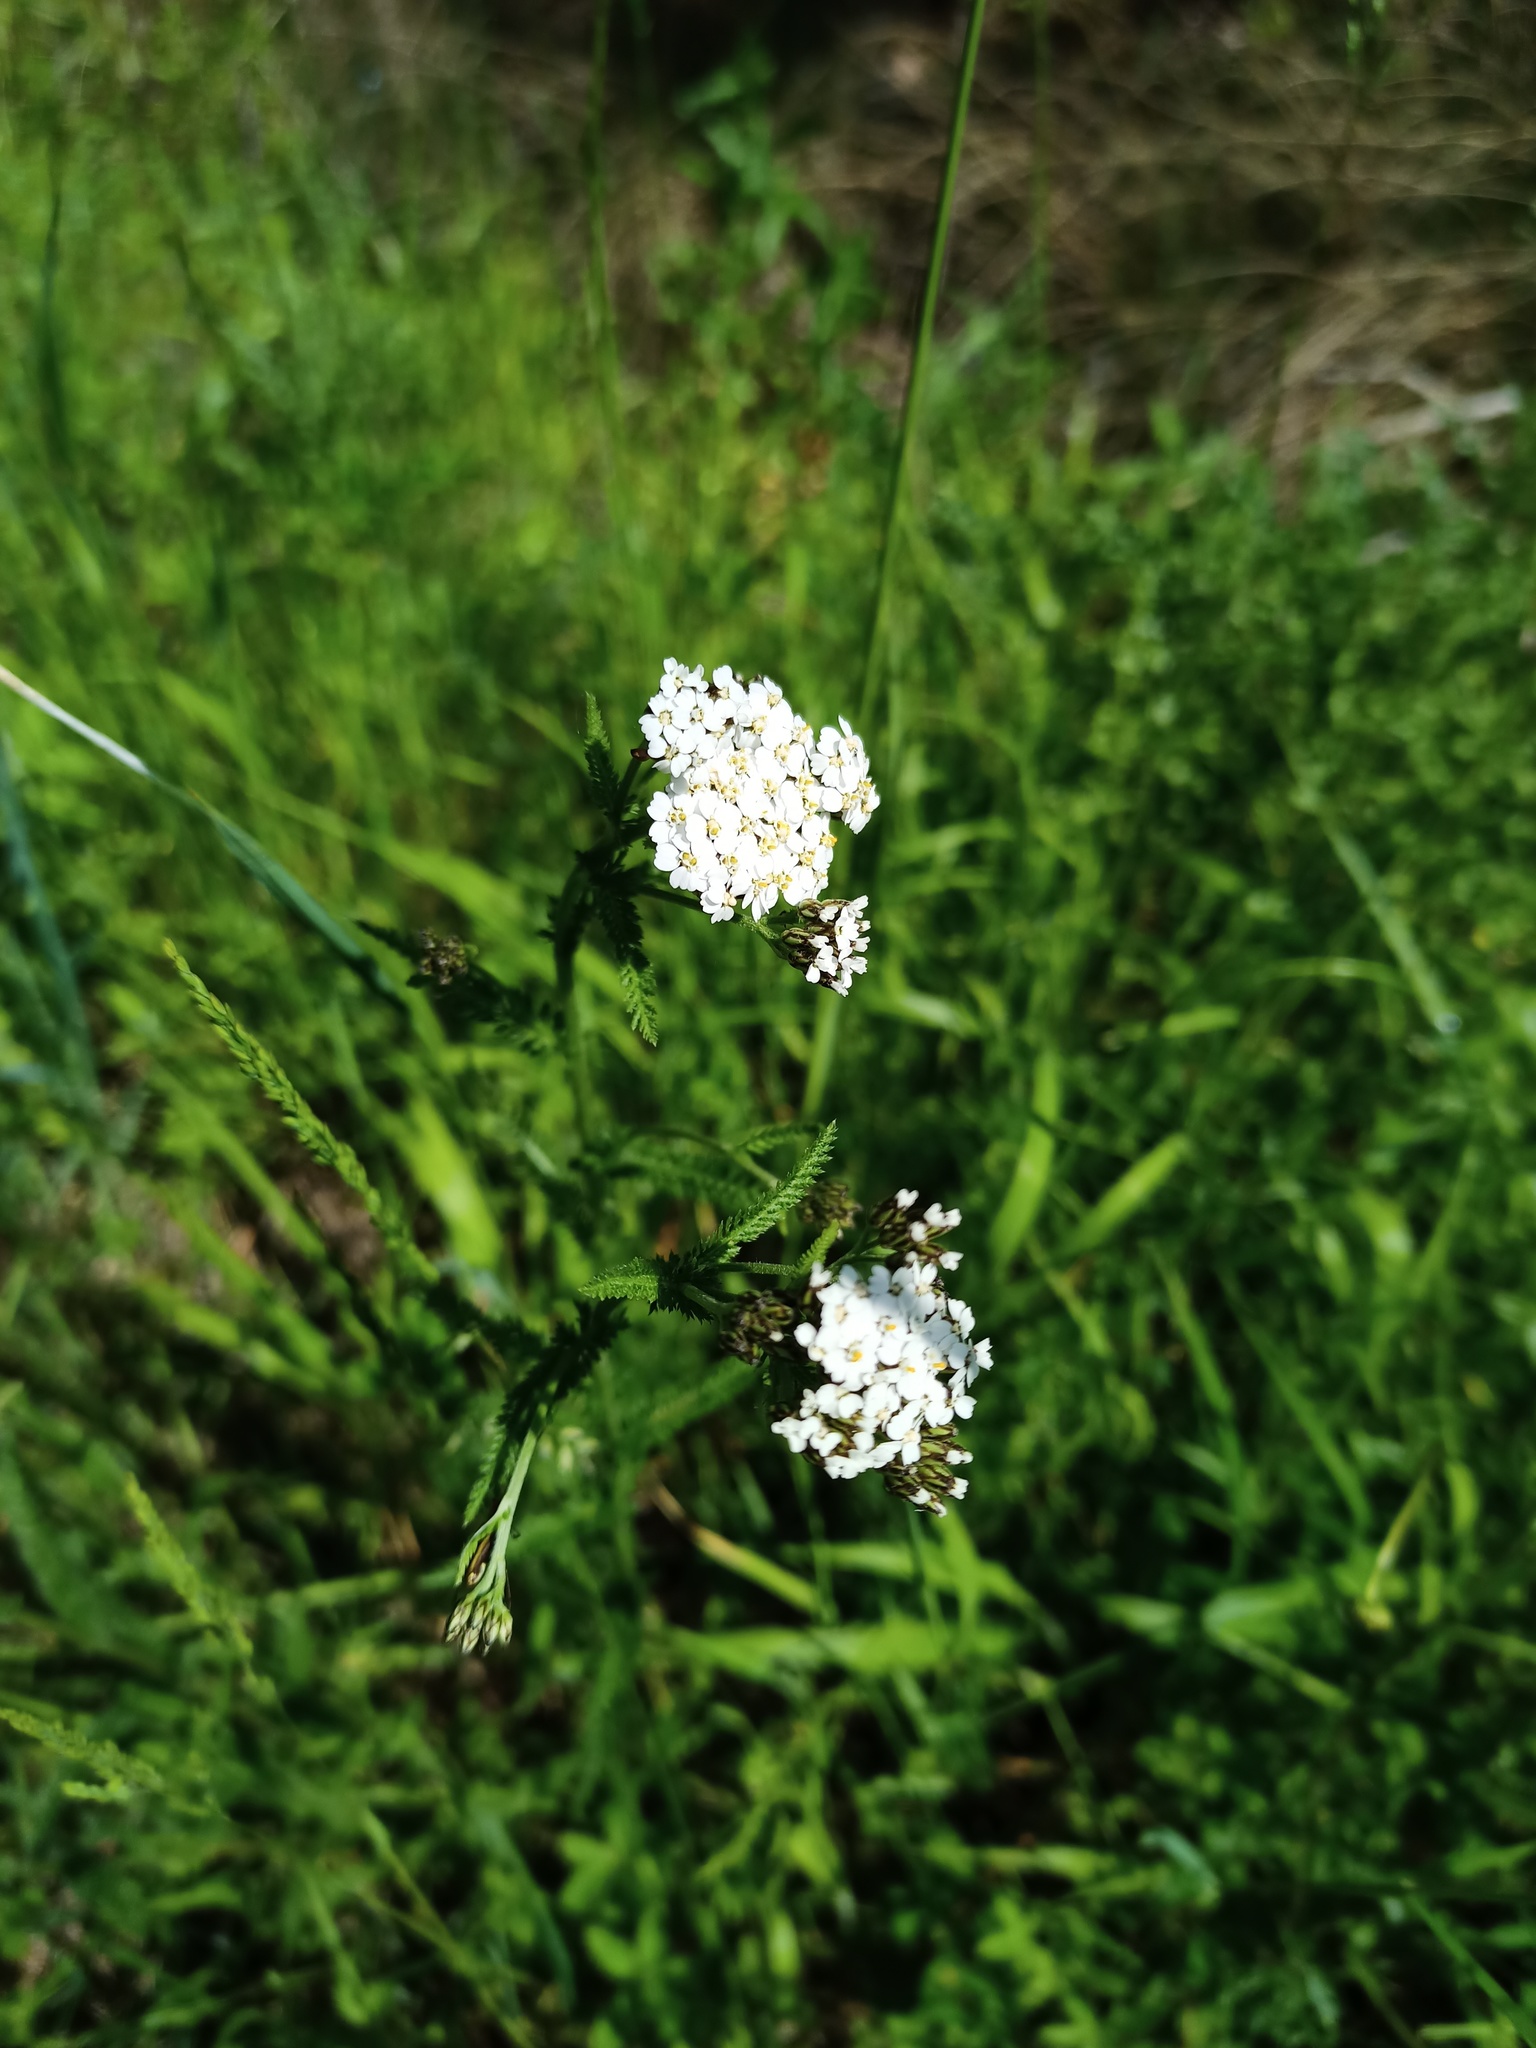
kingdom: Plantae
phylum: Tracheophyta
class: Magnoliopsida
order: Asterales
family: Asteraceae
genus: Achillea
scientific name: Achillea millefolium
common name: Yarrow
